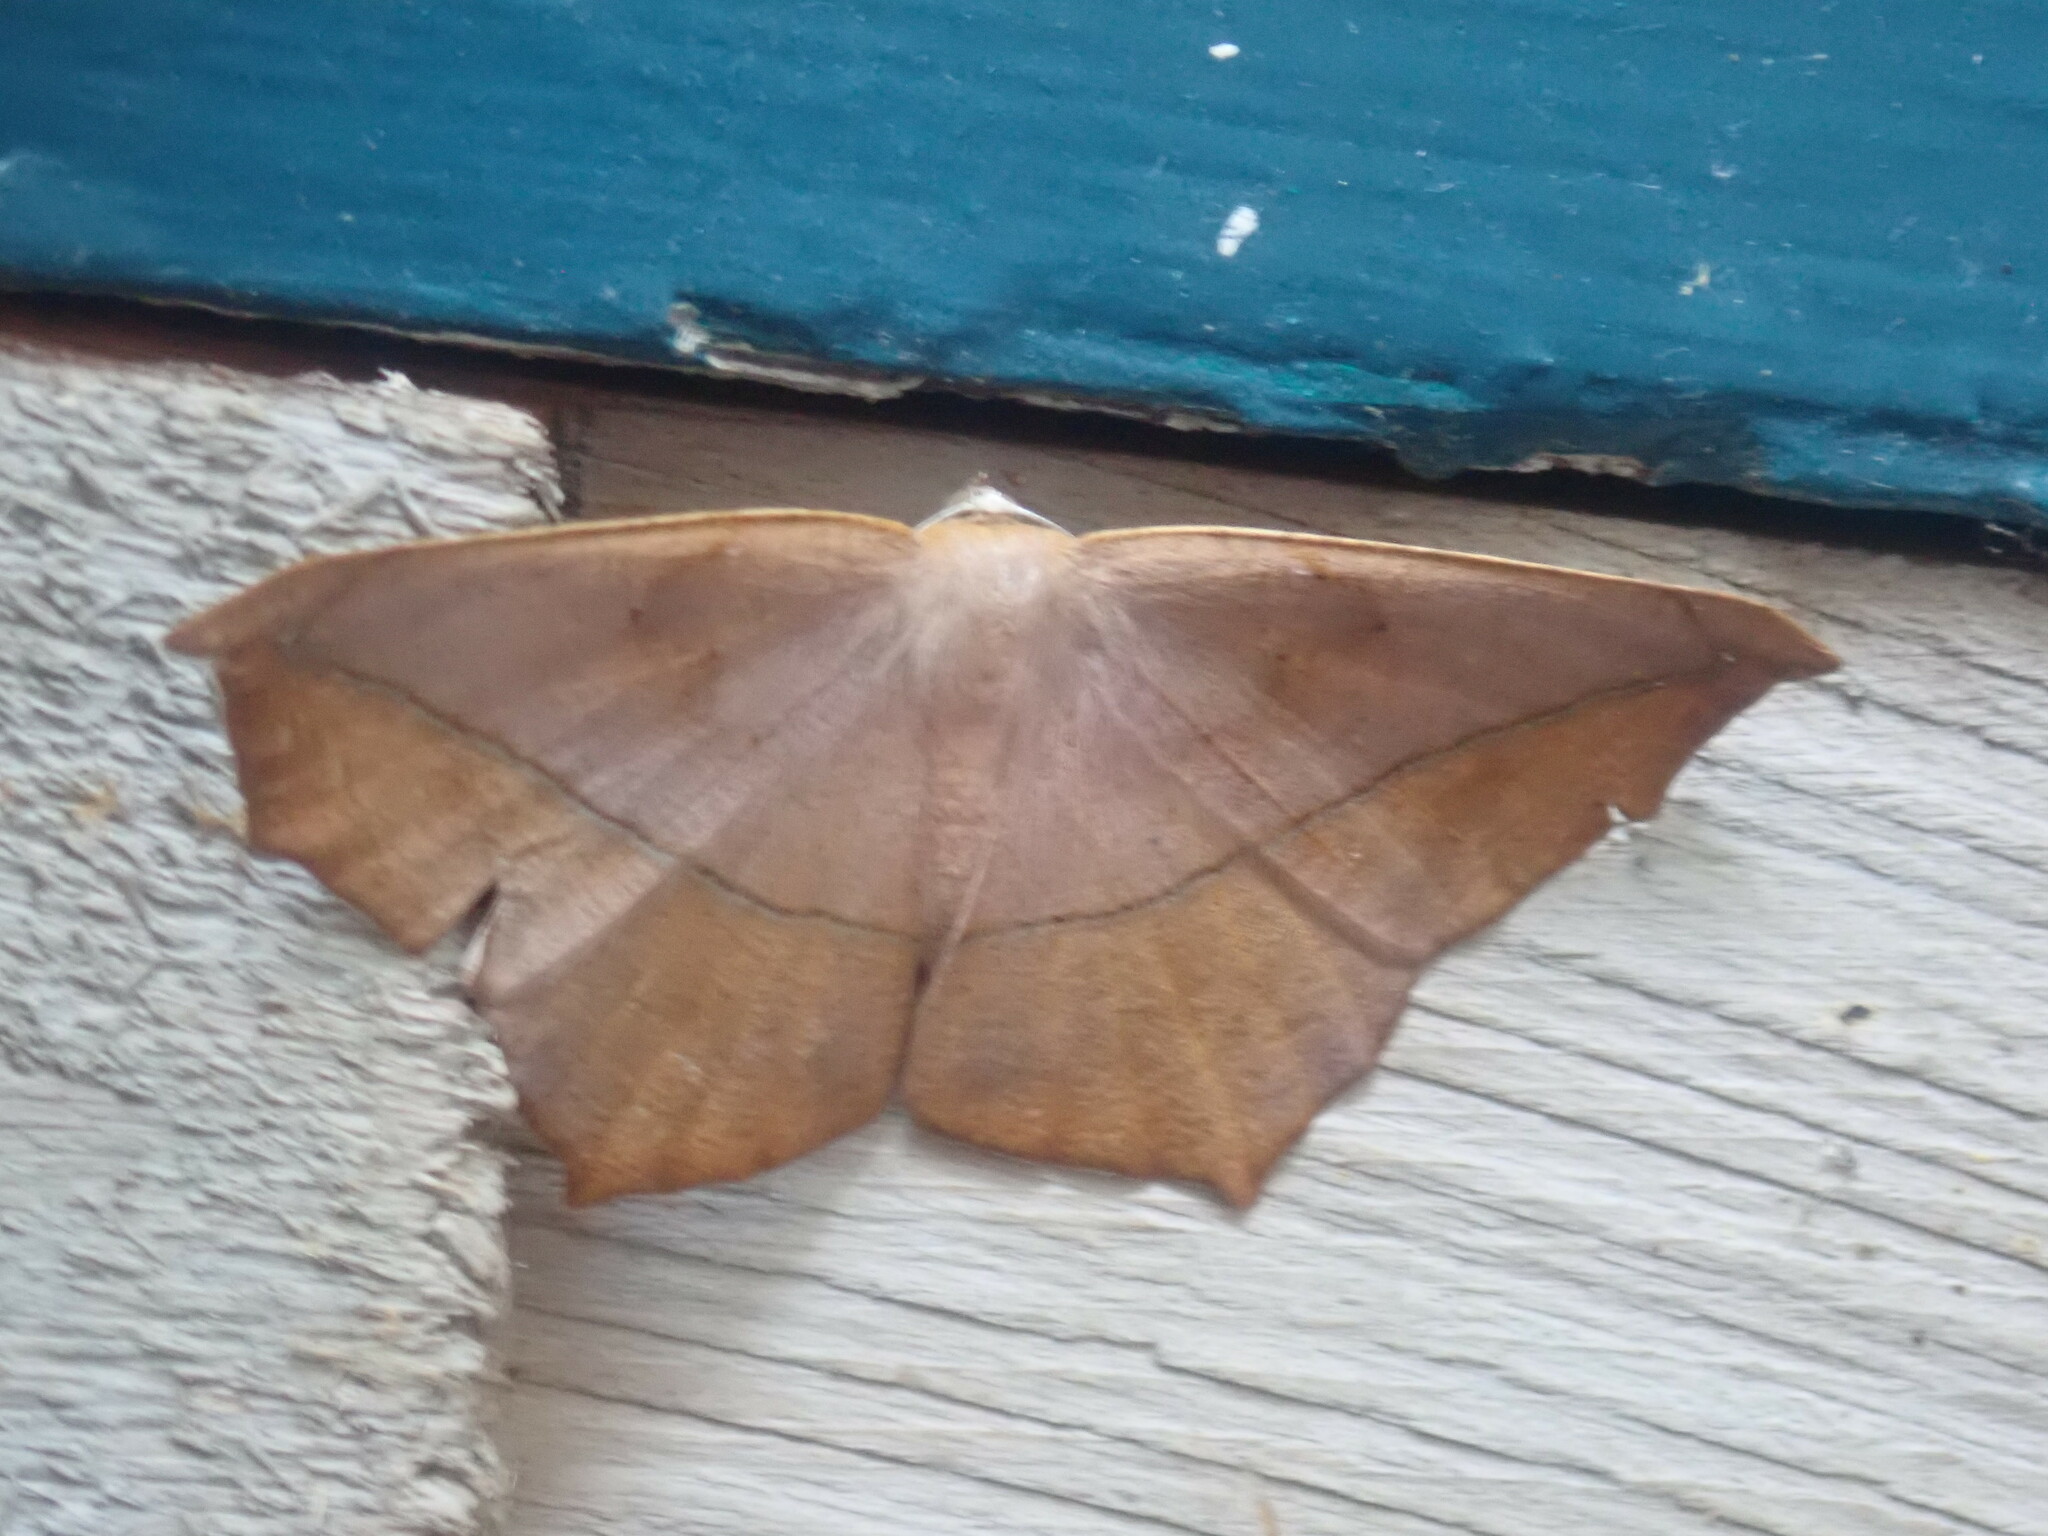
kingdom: Animalia
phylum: Arthropoda
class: Insecta
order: Lepidoptera
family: Geometridae
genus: Prochoerodes
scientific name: Prochoerodes lineola
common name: Large maple spanworm
